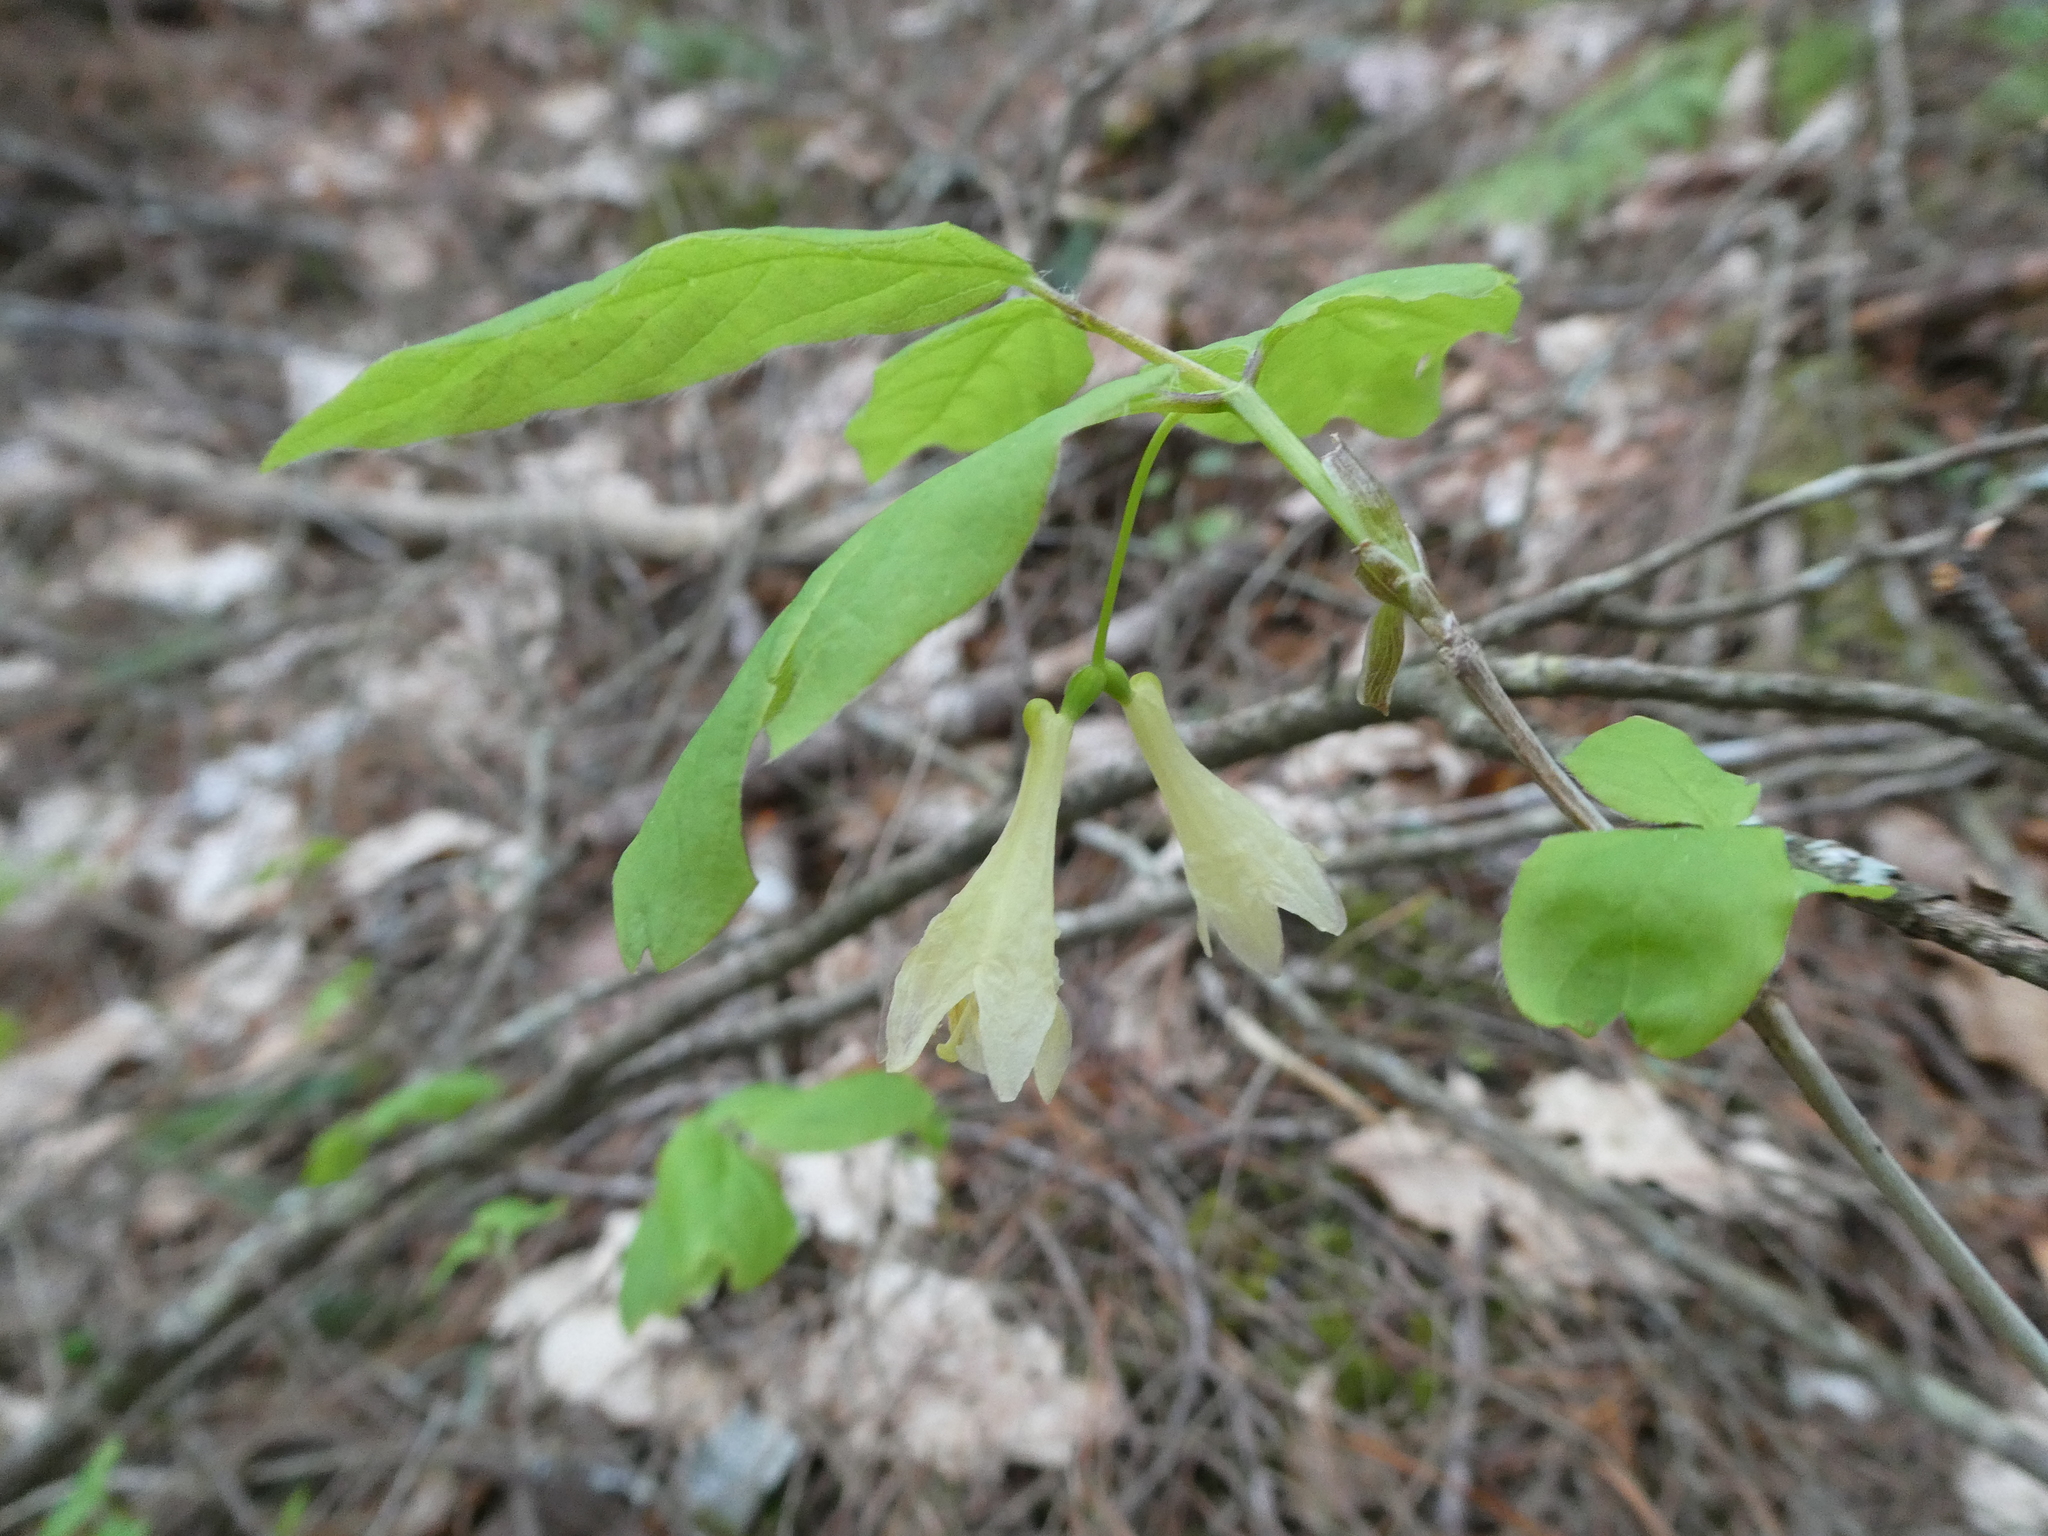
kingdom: Plantae
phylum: Tracheophyta
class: Magnoliopsida
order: Dipsacales
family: Caprifoliaceae
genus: Lonicera
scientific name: Lonicera canadensis
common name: American fly-honeysuckle
